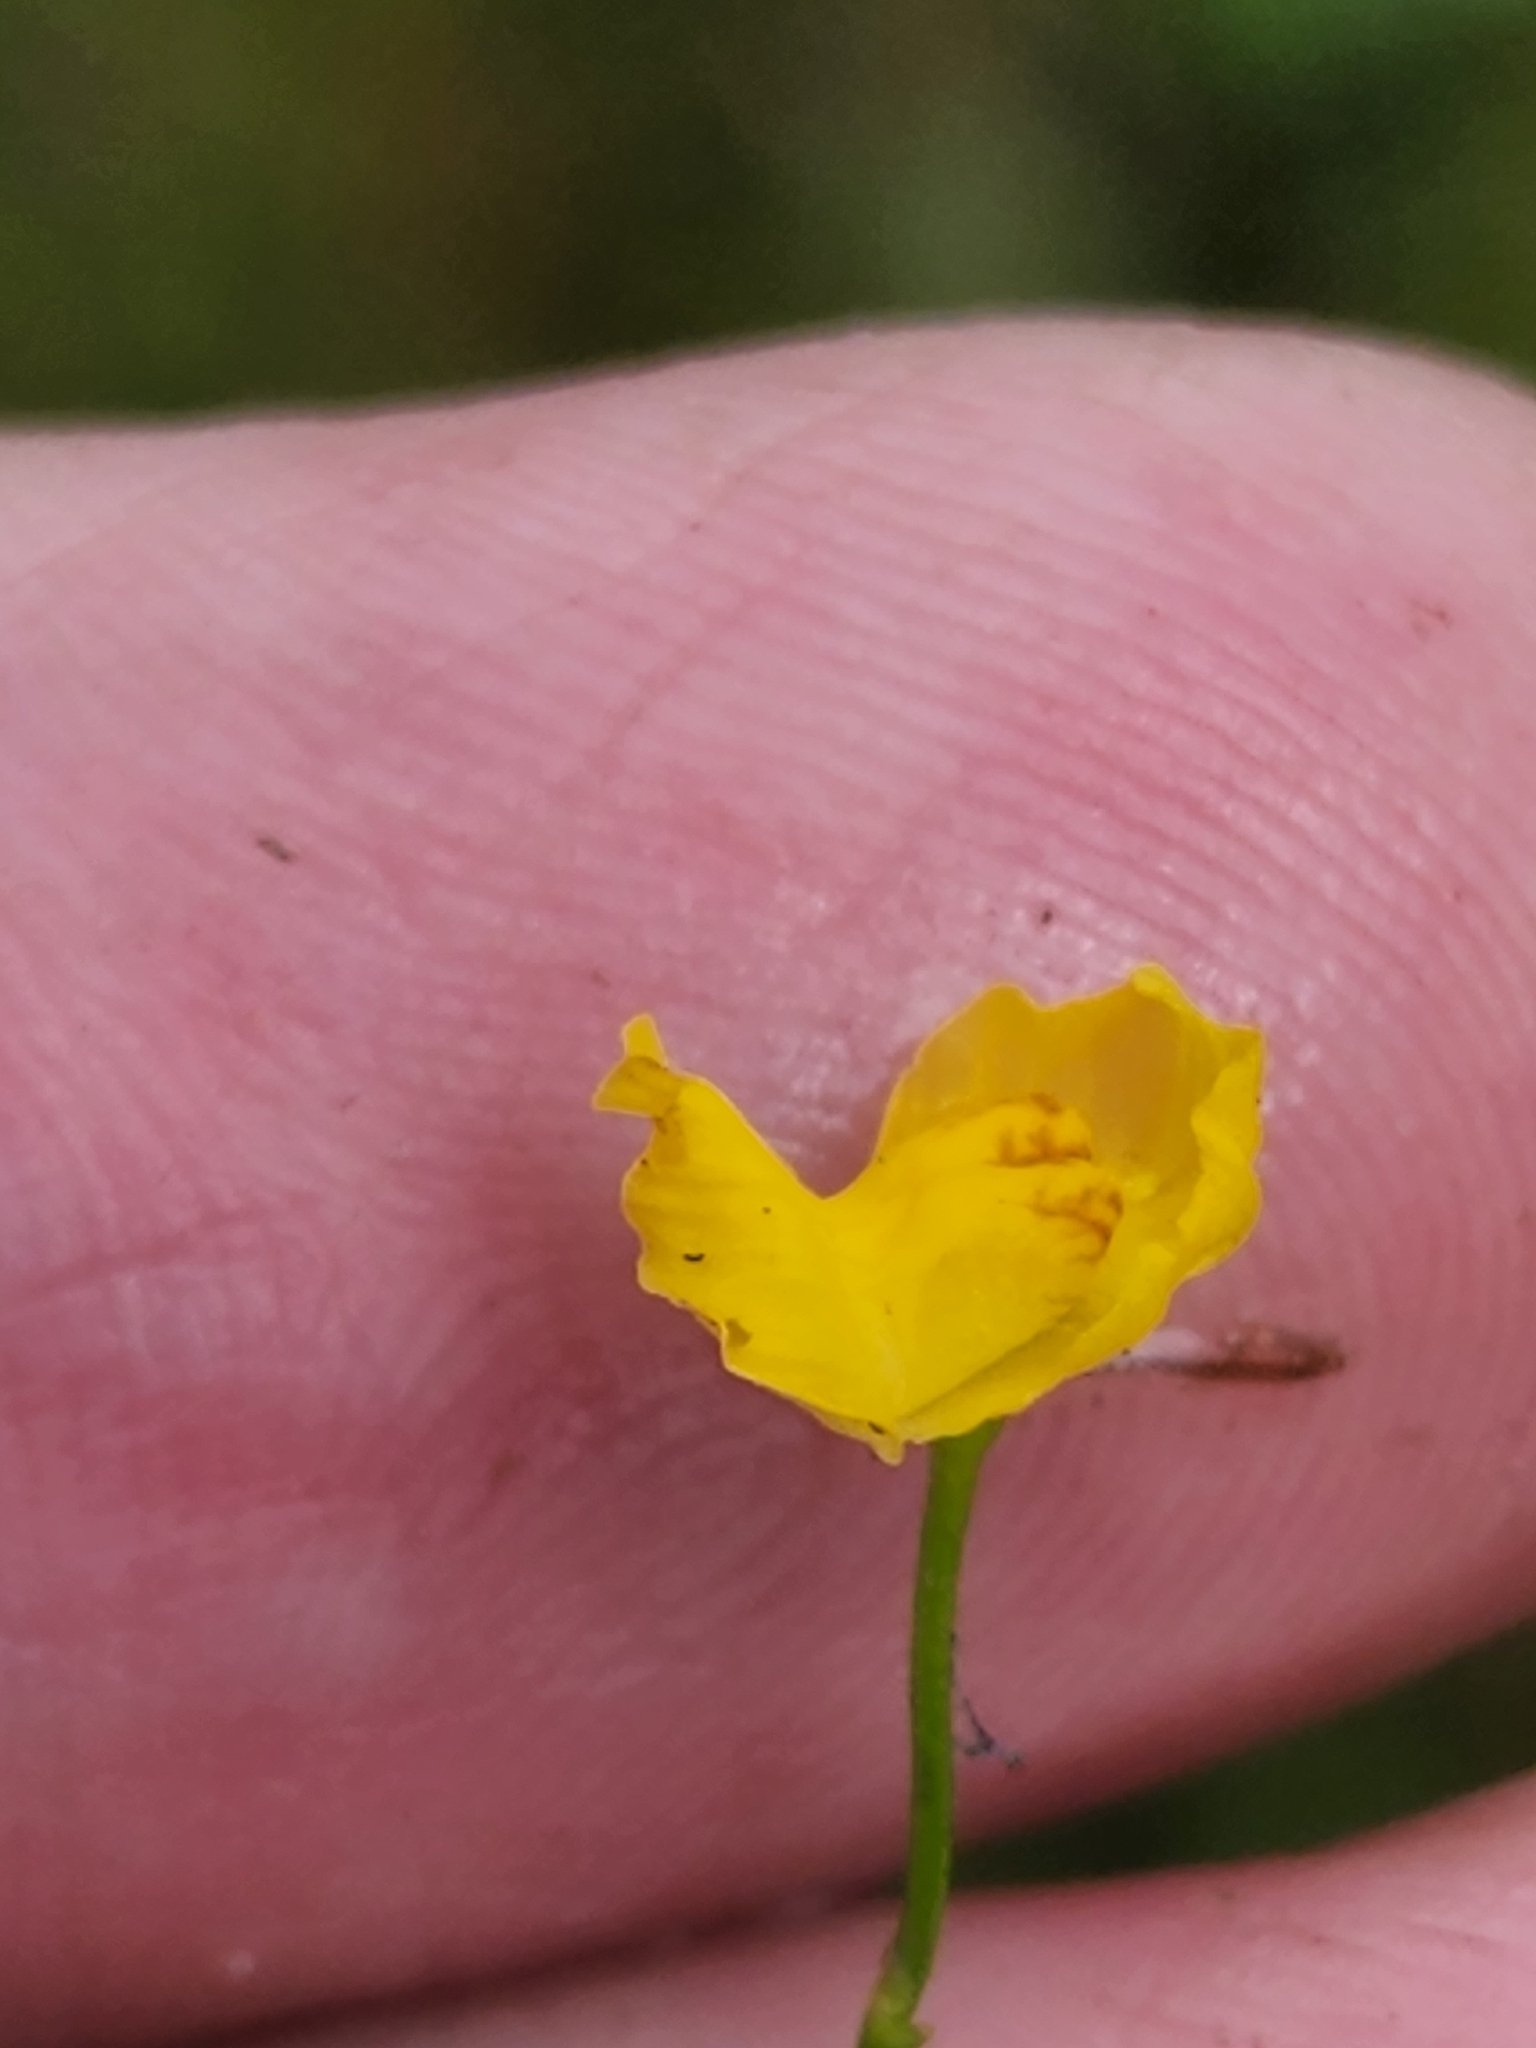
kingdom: Plantae
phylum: Tracheophyta
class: Magnoliopsida
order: Lamiales
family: Lentibulariaceae
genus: Utricularia
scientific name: Utricularia gibba
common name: Humped bladderwort
